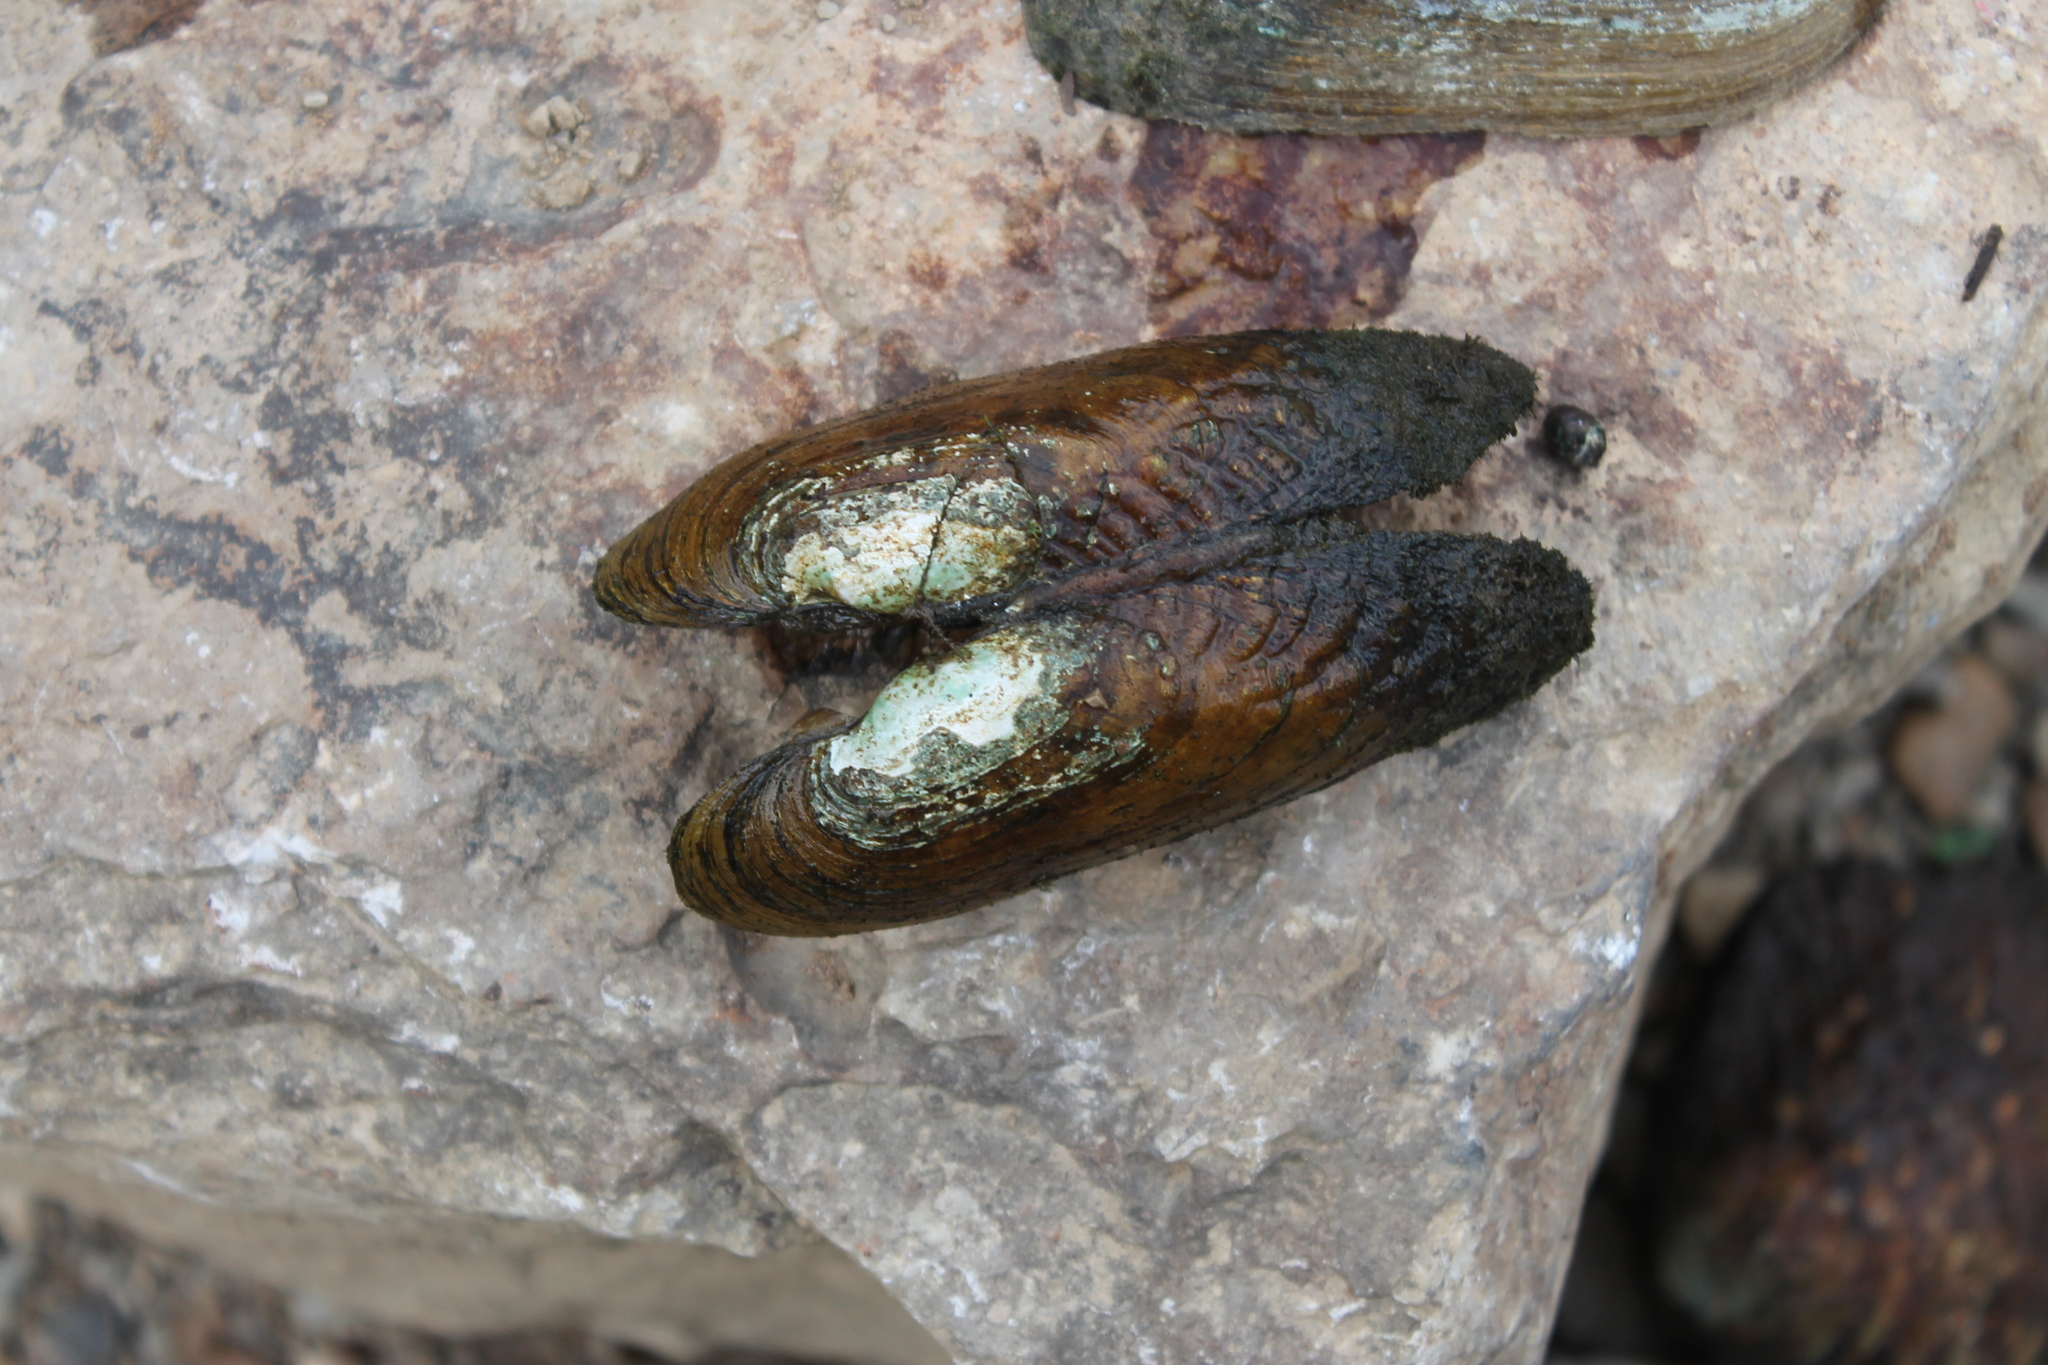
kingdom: Animalia
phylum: Mollusca
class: Bivalvia
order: Unionida
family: Unionidae
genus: Ptychobranchus
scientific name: Ptychobranchus subtentus
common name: Fluted kidneyshell
